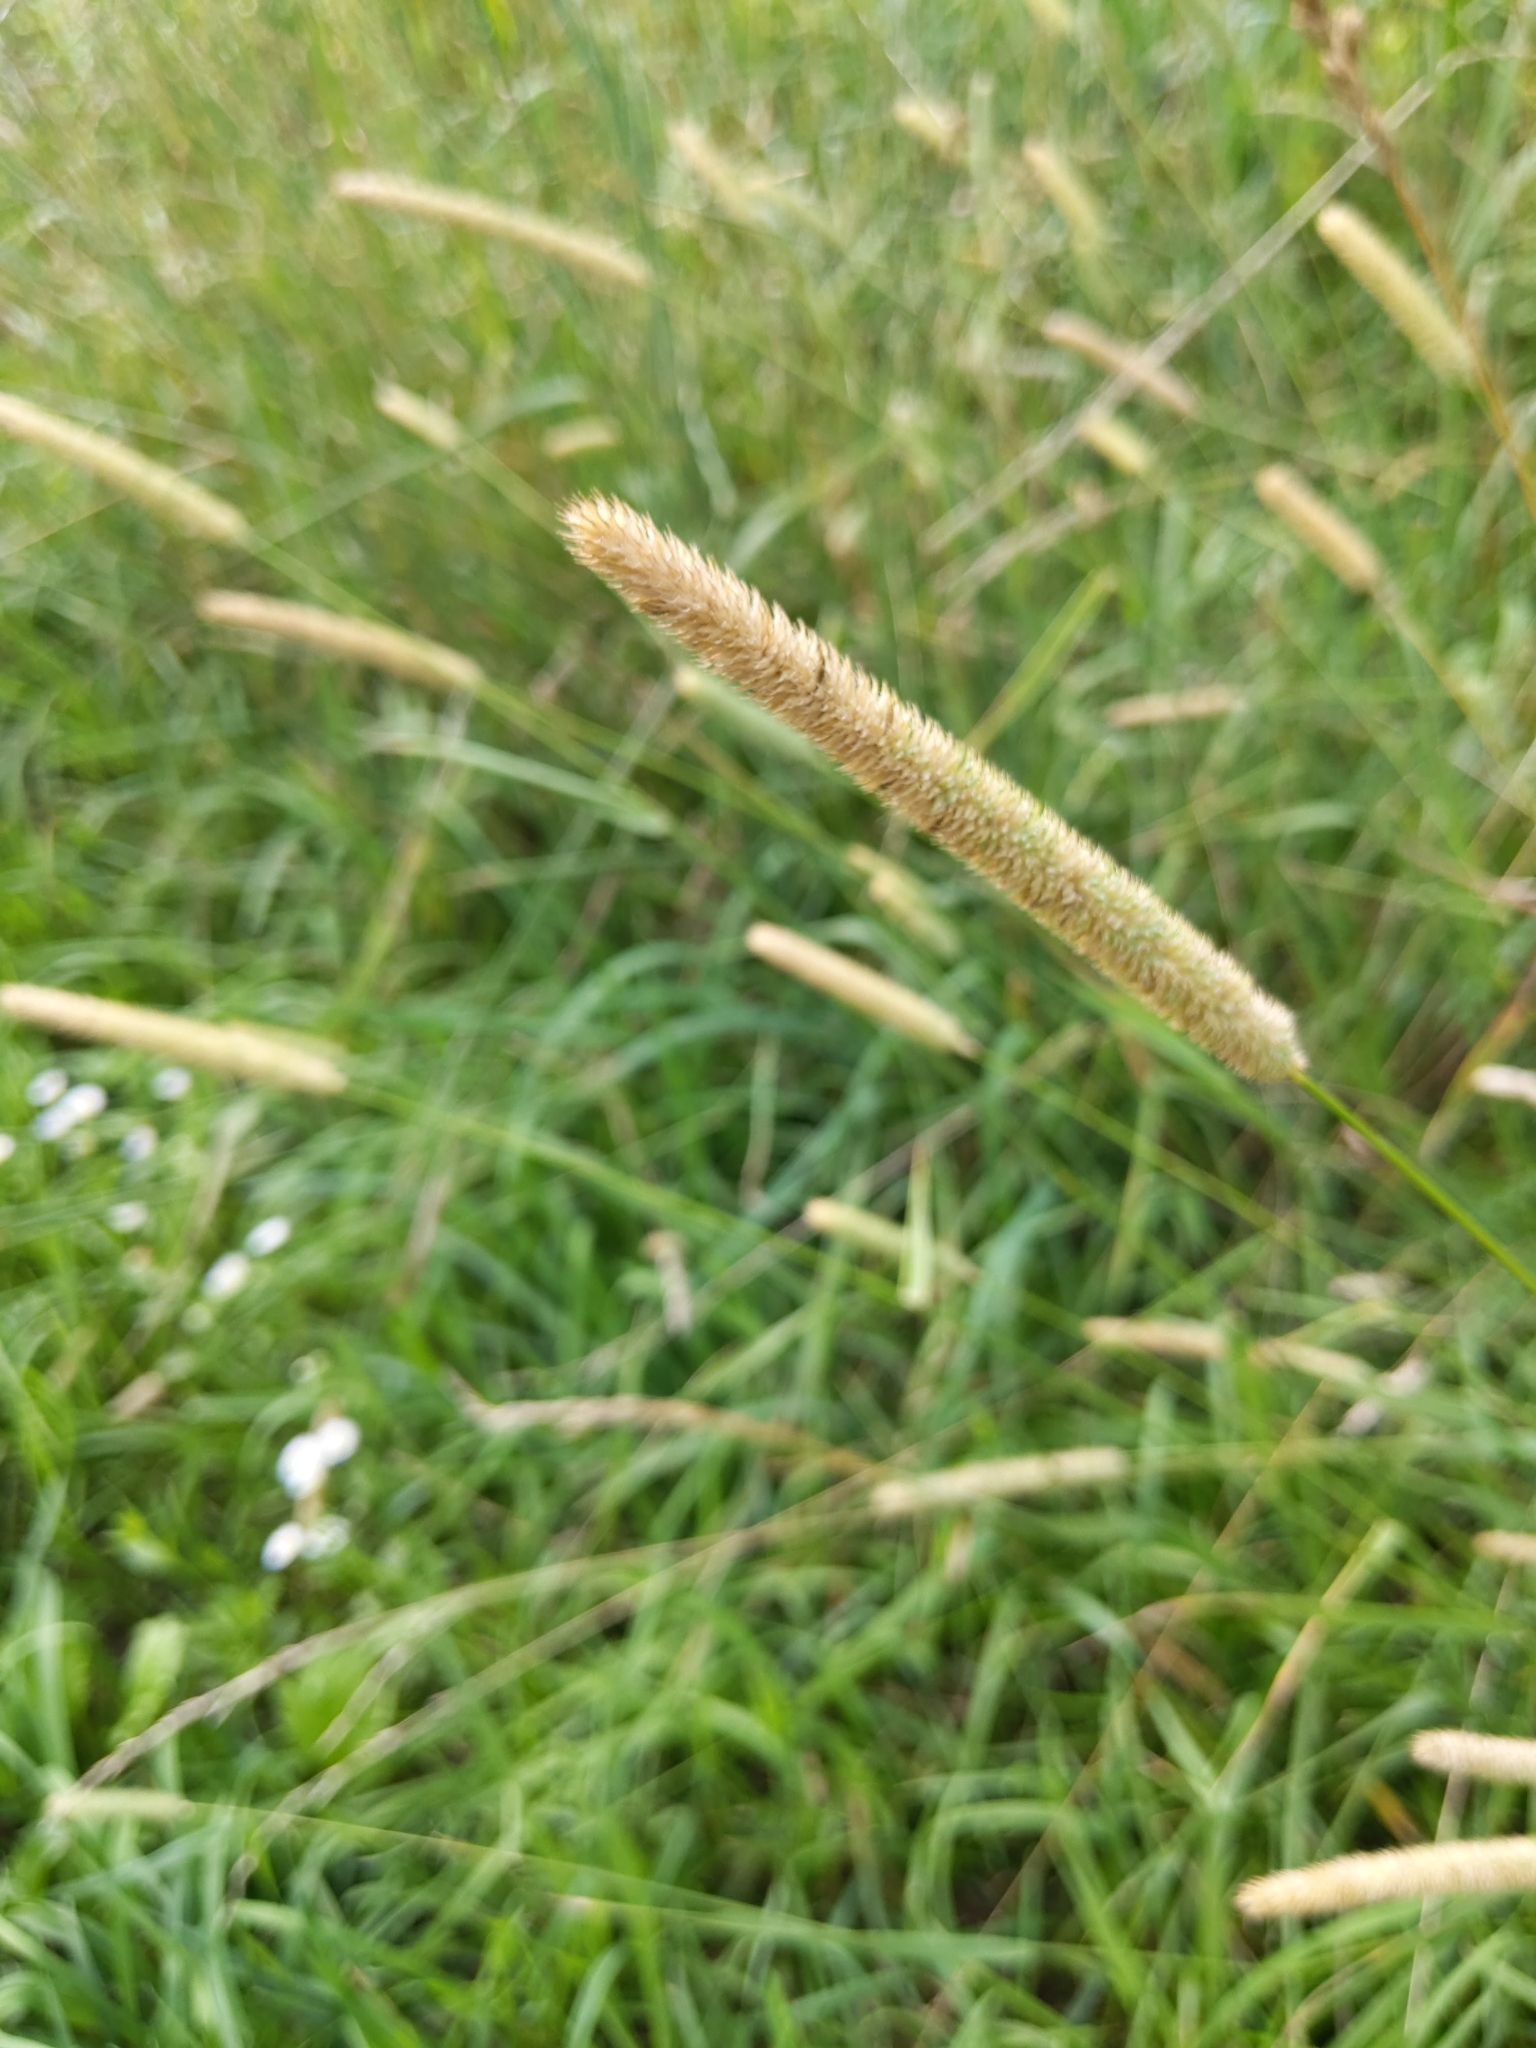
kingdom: Plantae
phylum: Tracheophyta
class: Liliopsida
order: Poales
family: Poaceae
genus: Phleum
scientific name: Phleum pratense
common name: Timothy grass
